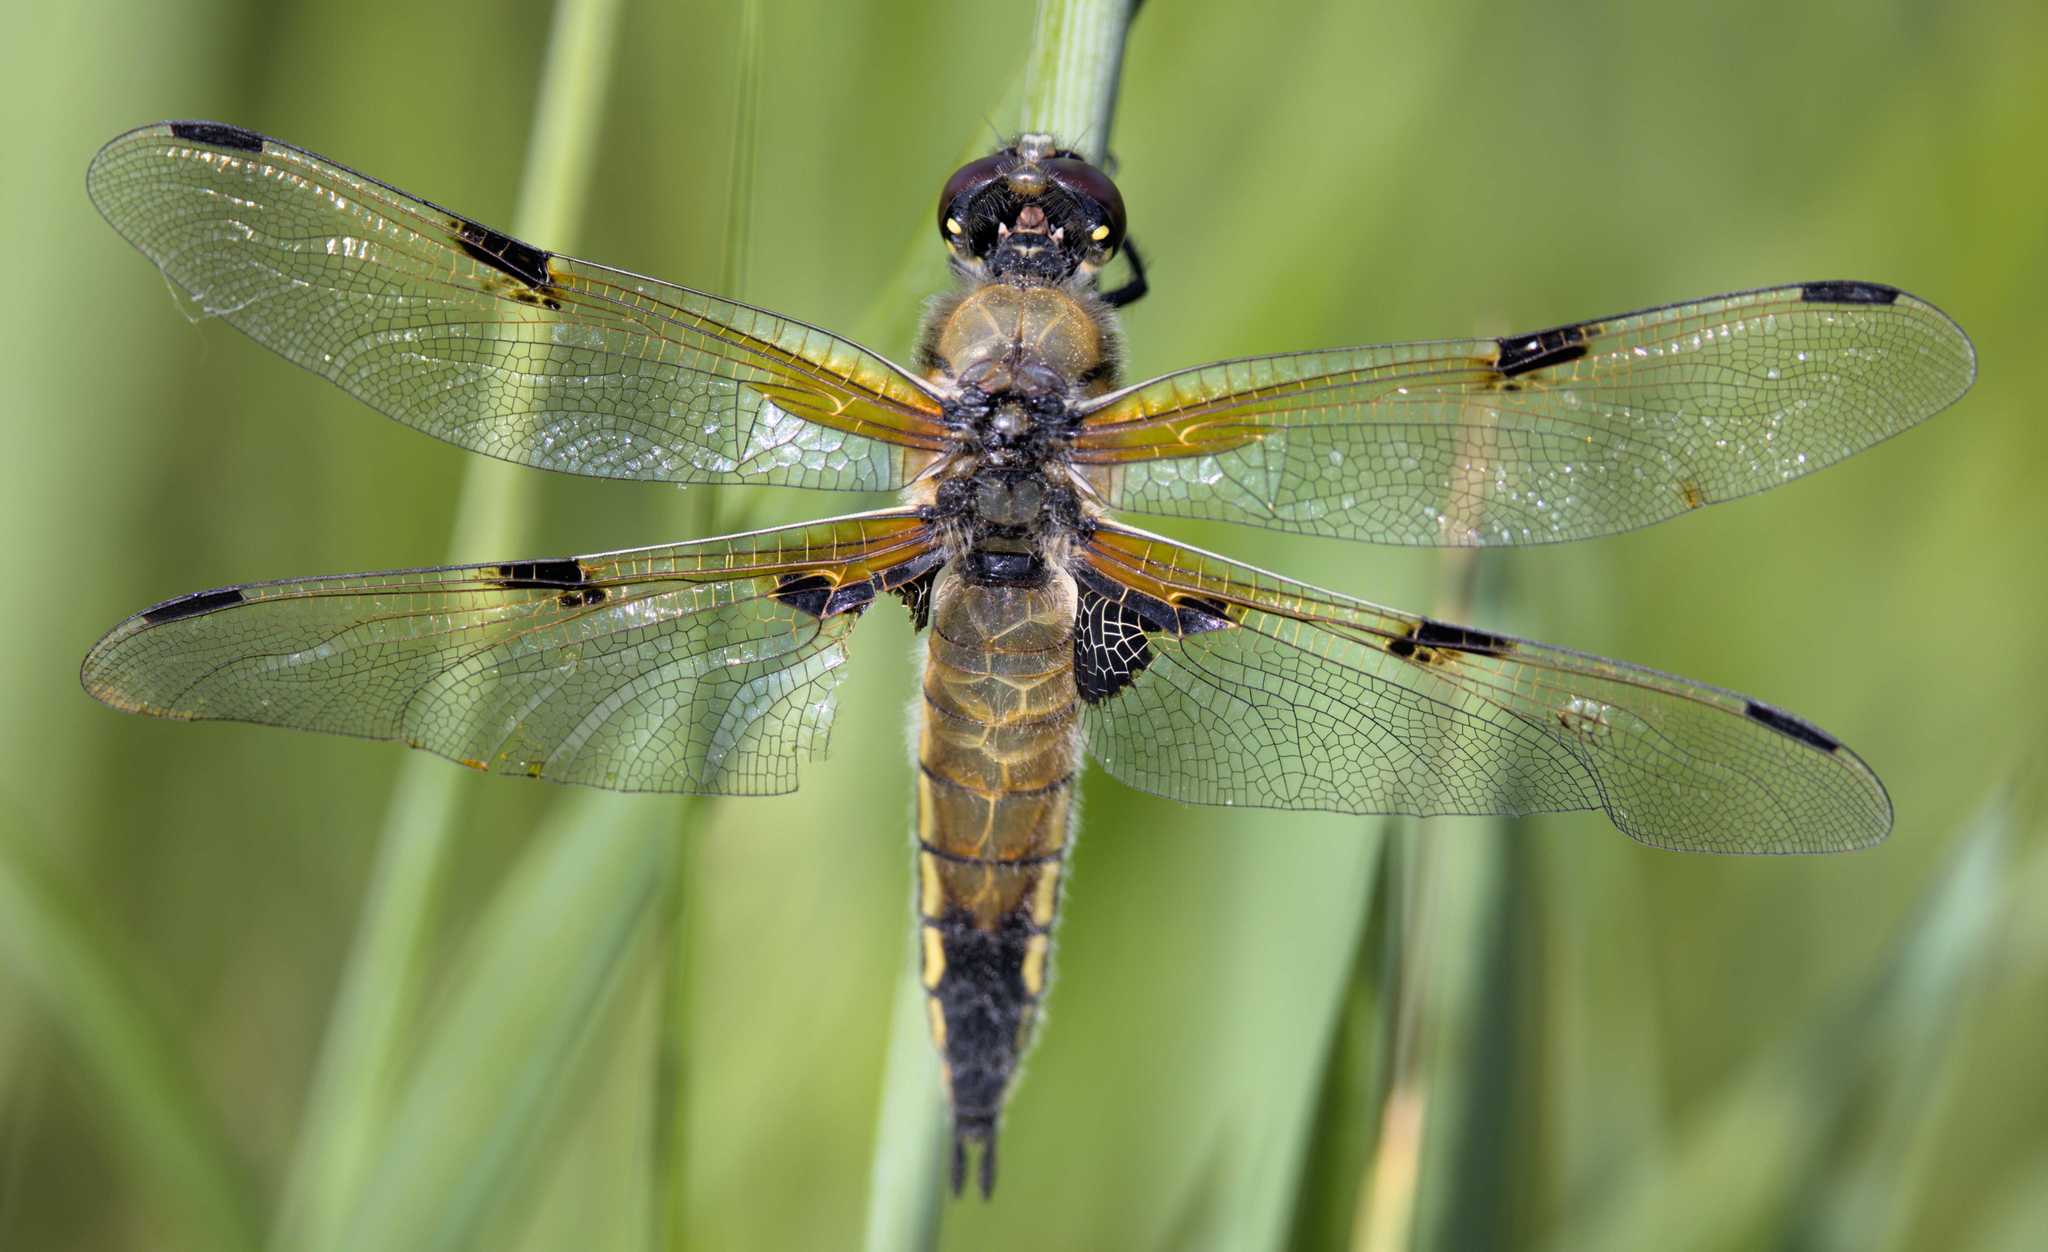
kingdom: Animalia
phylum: Arthropoda
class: Insecta
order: Odonata
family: Libellulidae
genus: Libellula
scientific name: Libellula quadrimaculata
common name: Four-spotted chaser
